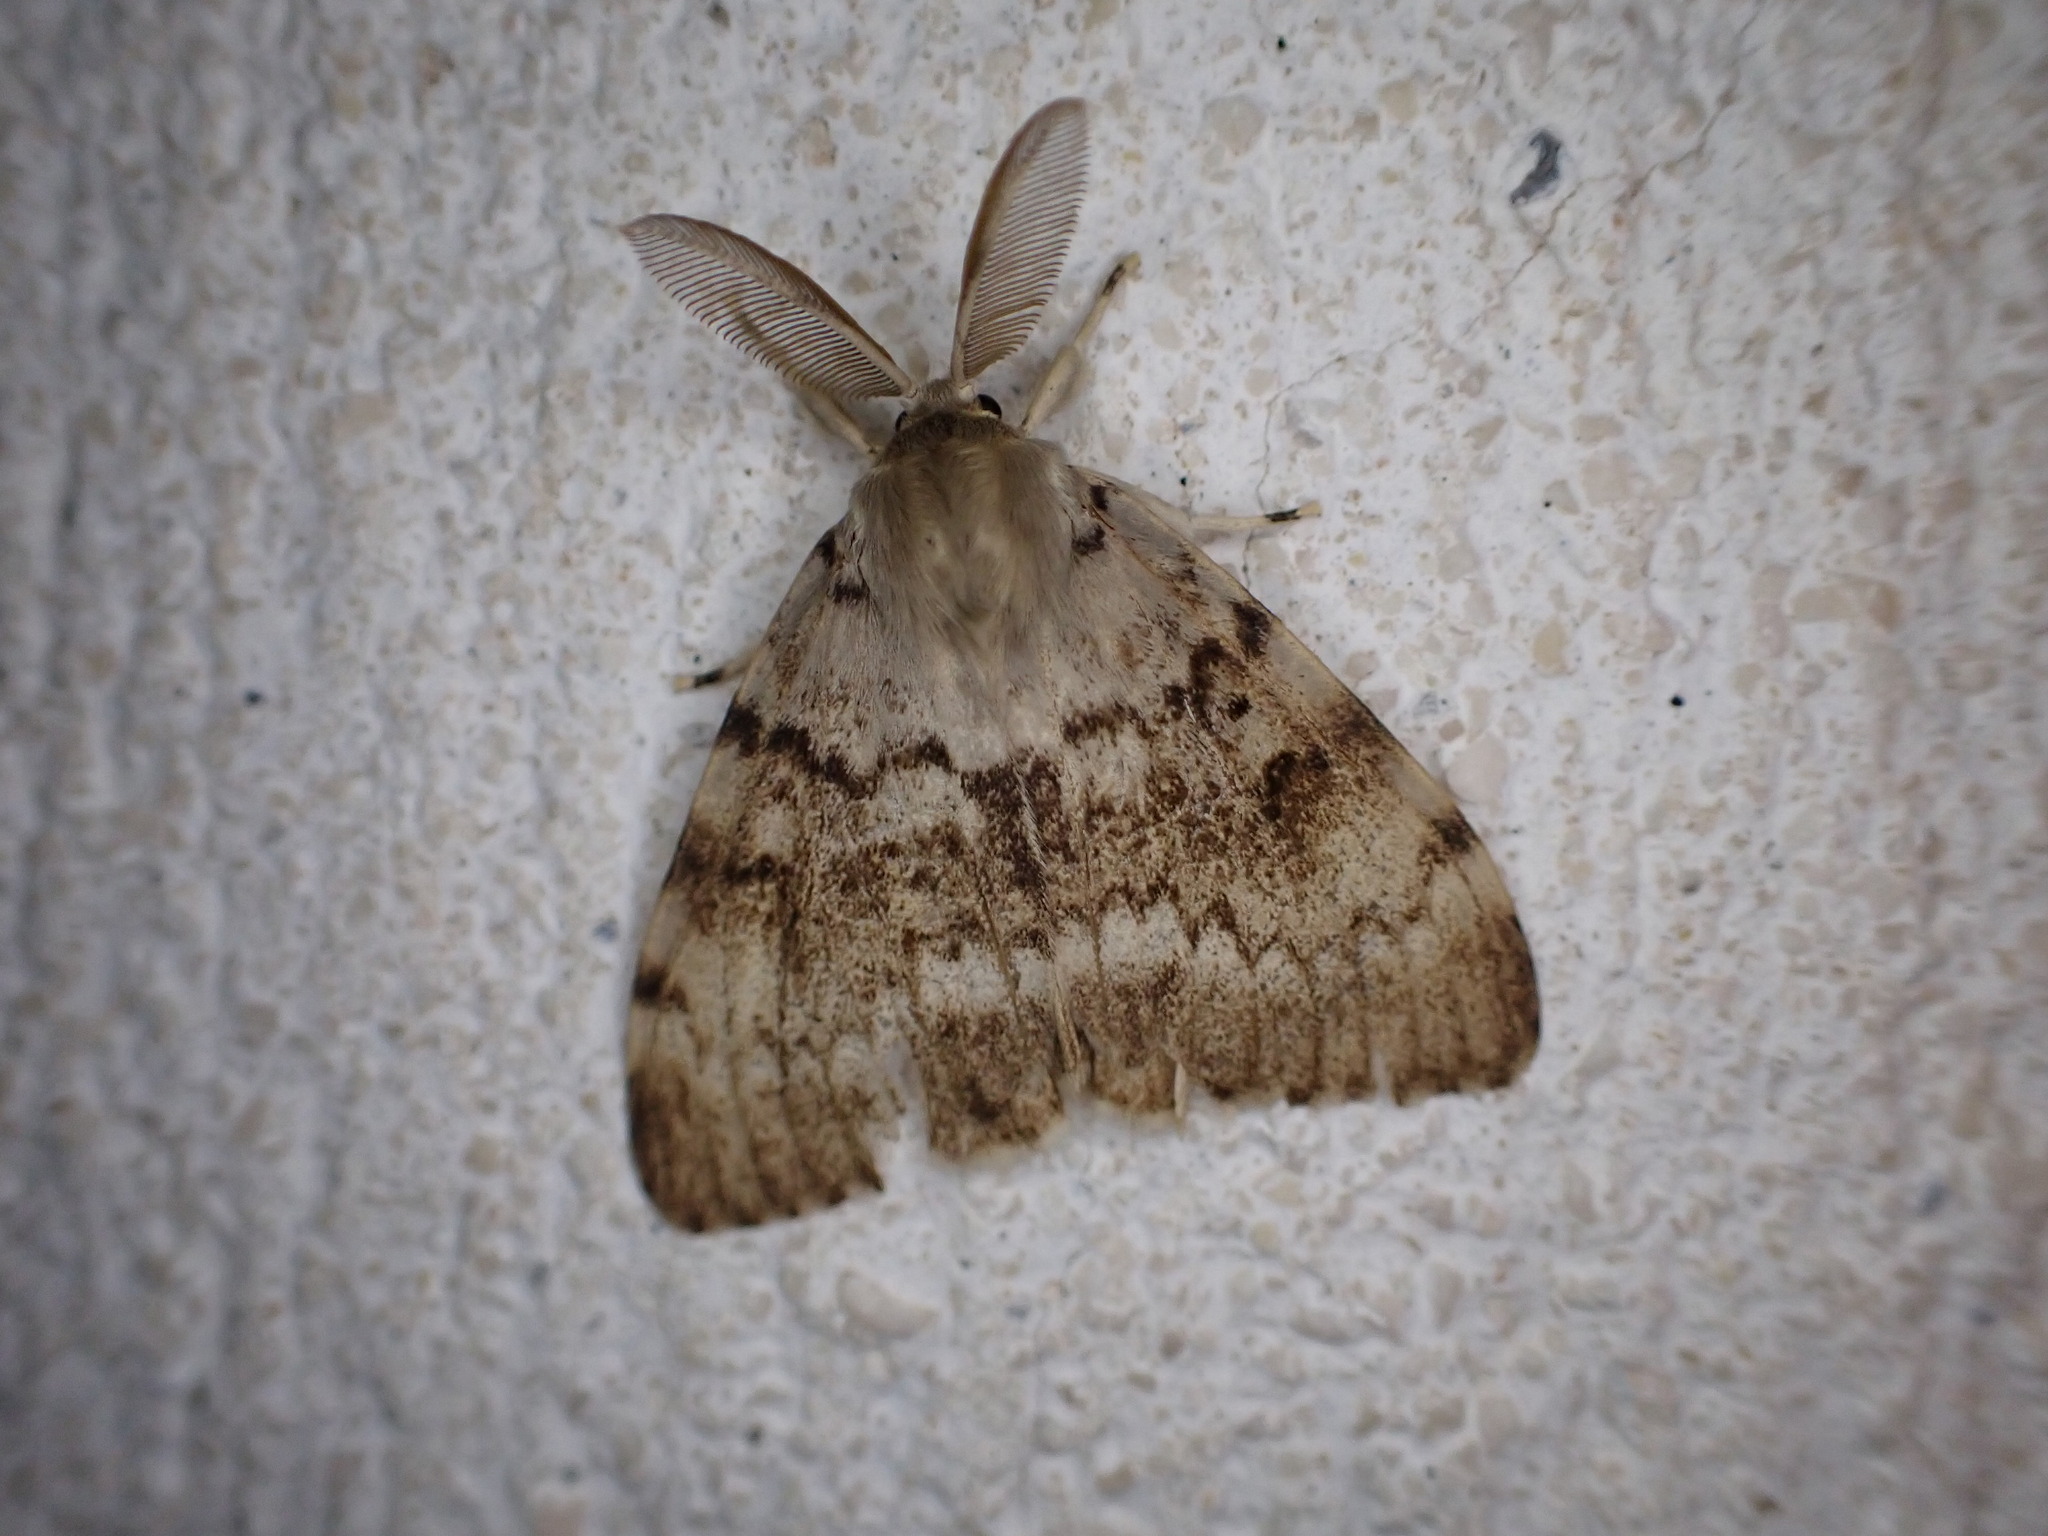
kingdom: Animalia
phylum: Arthropoda
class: Insecta
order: Lepidoptera
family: Erebidae
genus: Lymantria
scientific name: Lymantria dispar
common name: Gypsy moth
